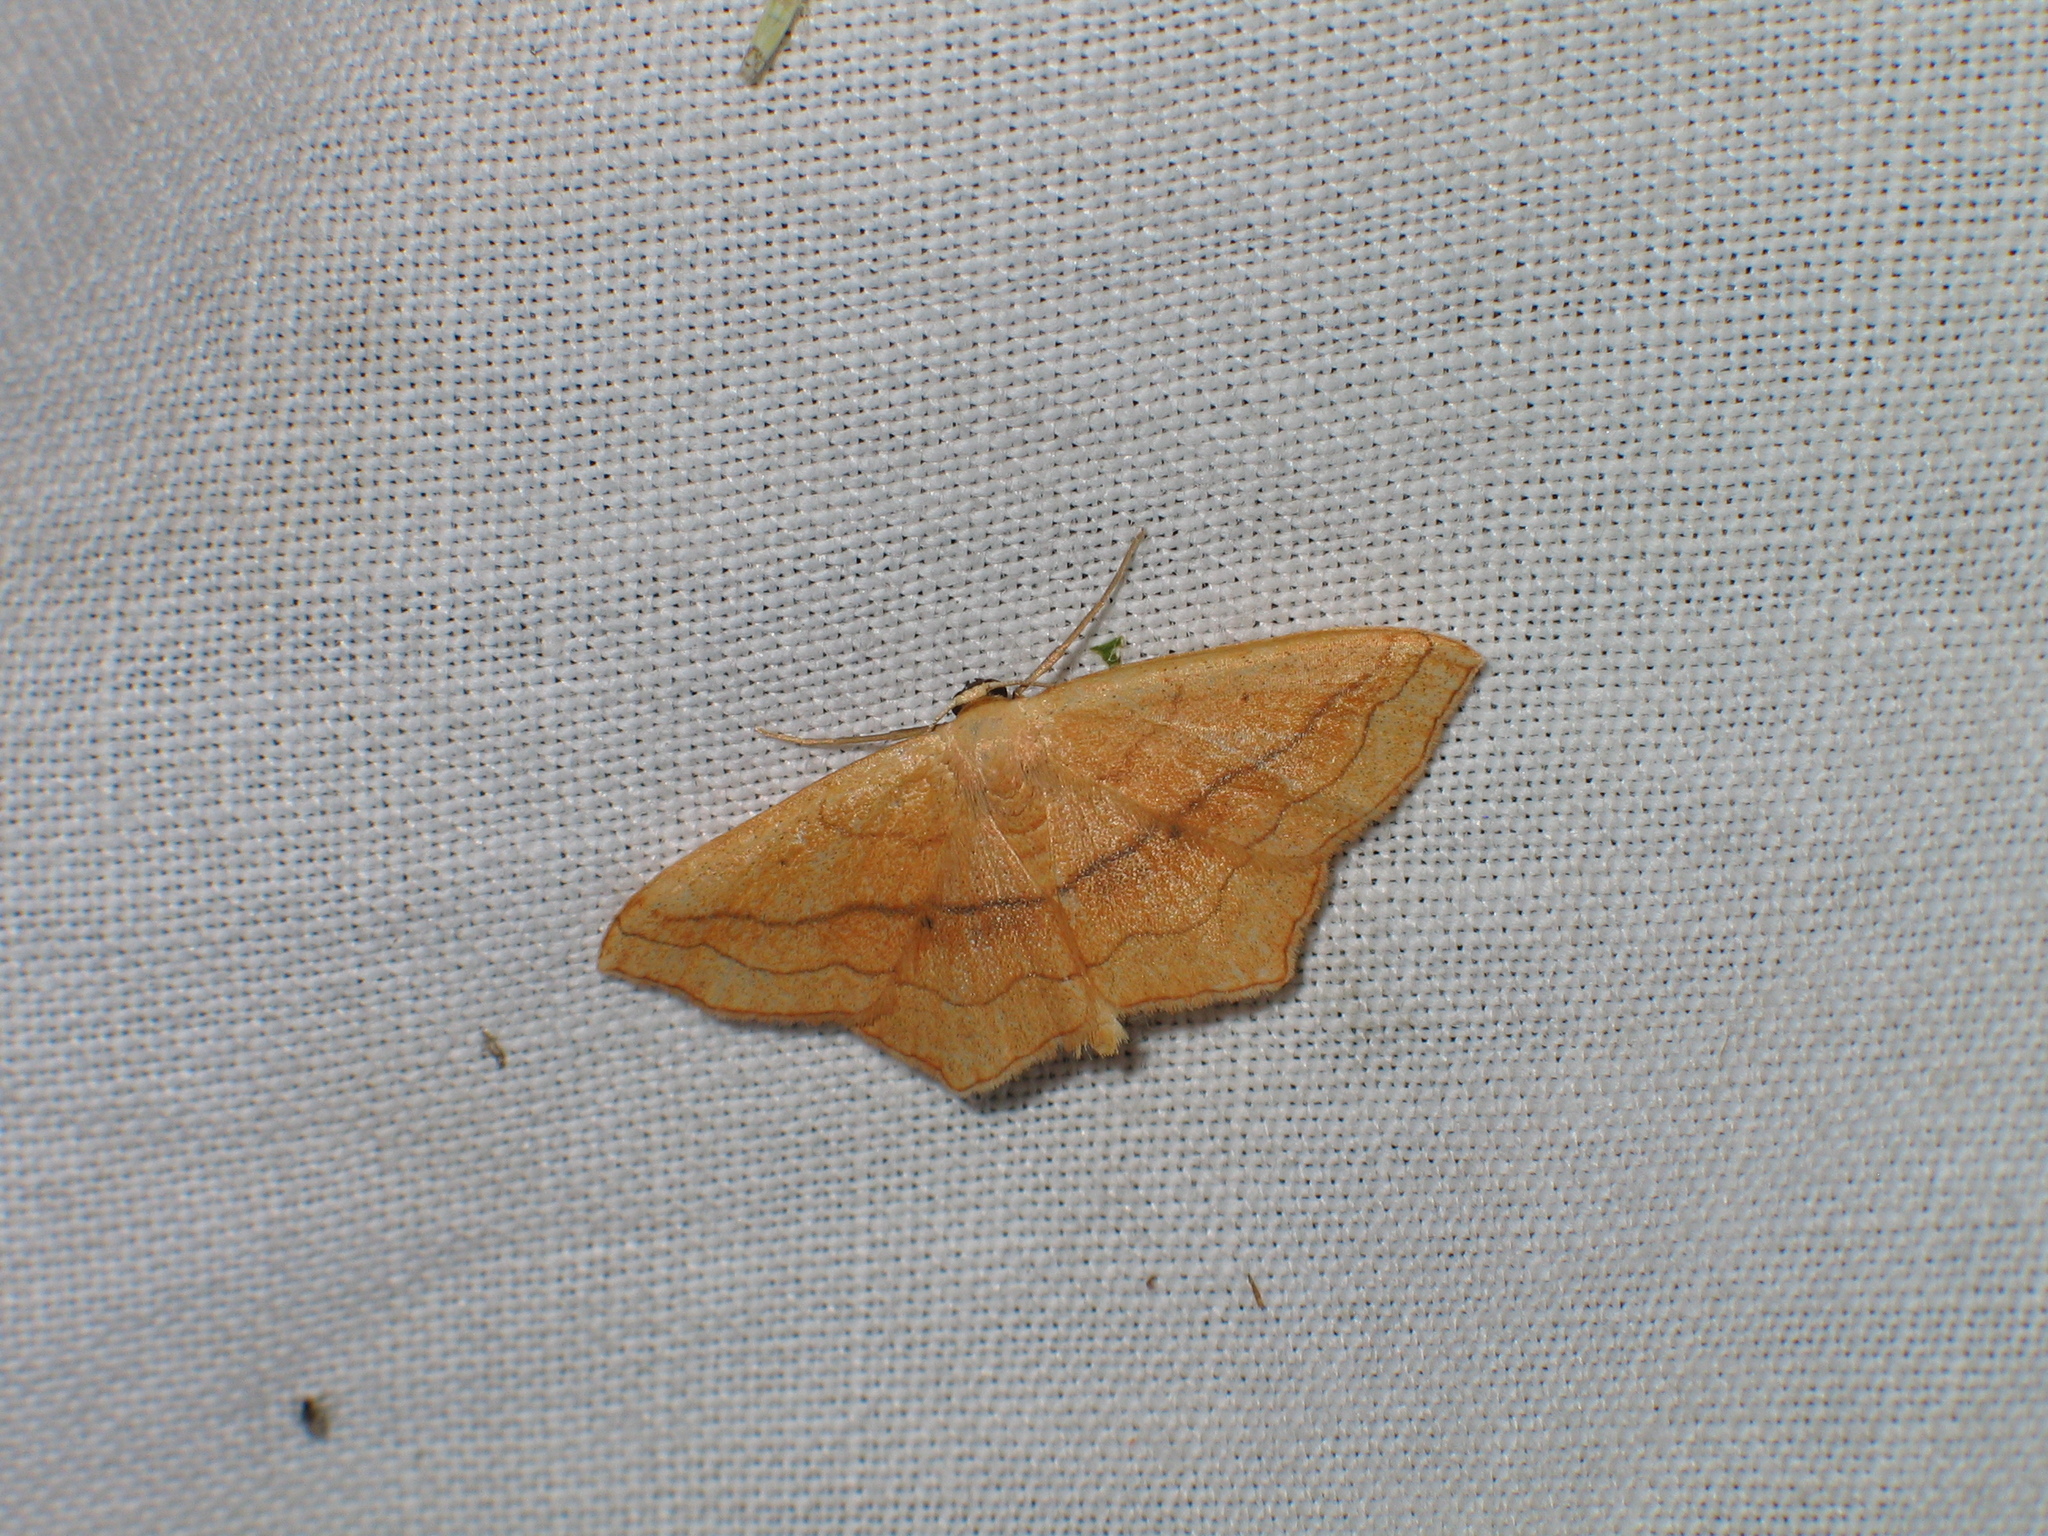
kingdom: Animalia
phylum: Arthropoda
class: Insecta
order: Lepidoptera
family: Geometridae
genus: Scopula
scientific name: Scopula imitaria
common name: Small blood-vein
